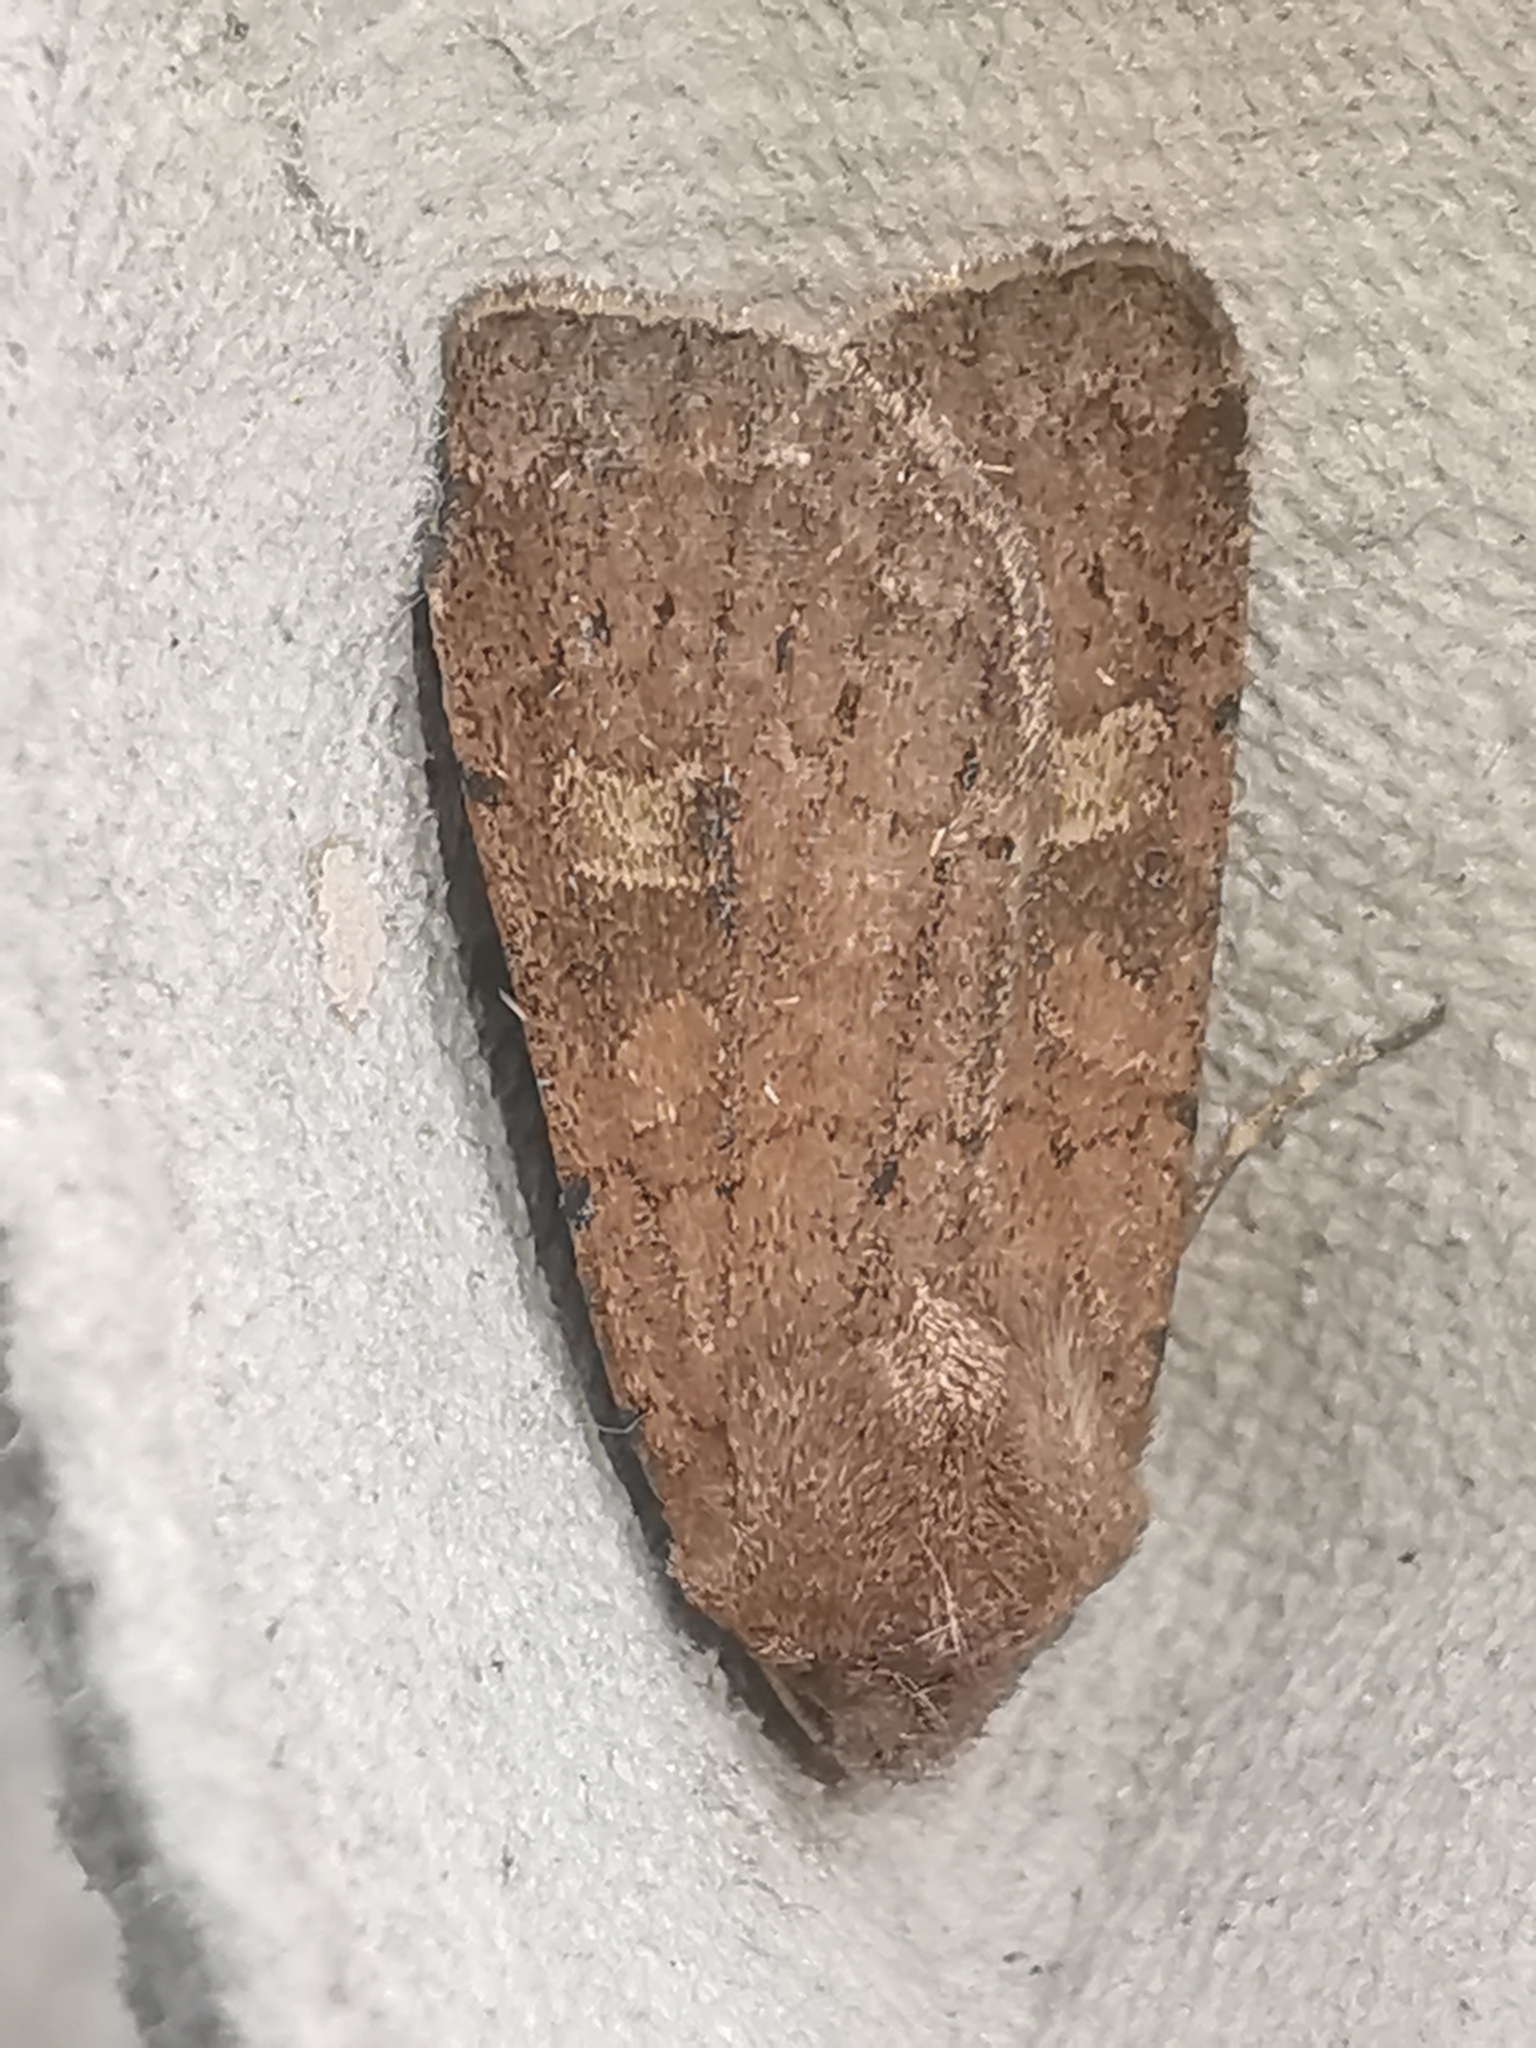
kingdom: Animalia
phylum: Arthropoda
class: Insecta
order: Lepidoptera
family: Noctuidae
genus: Xestia
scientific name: Xestia xanthographa
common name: Square-spot rustic
